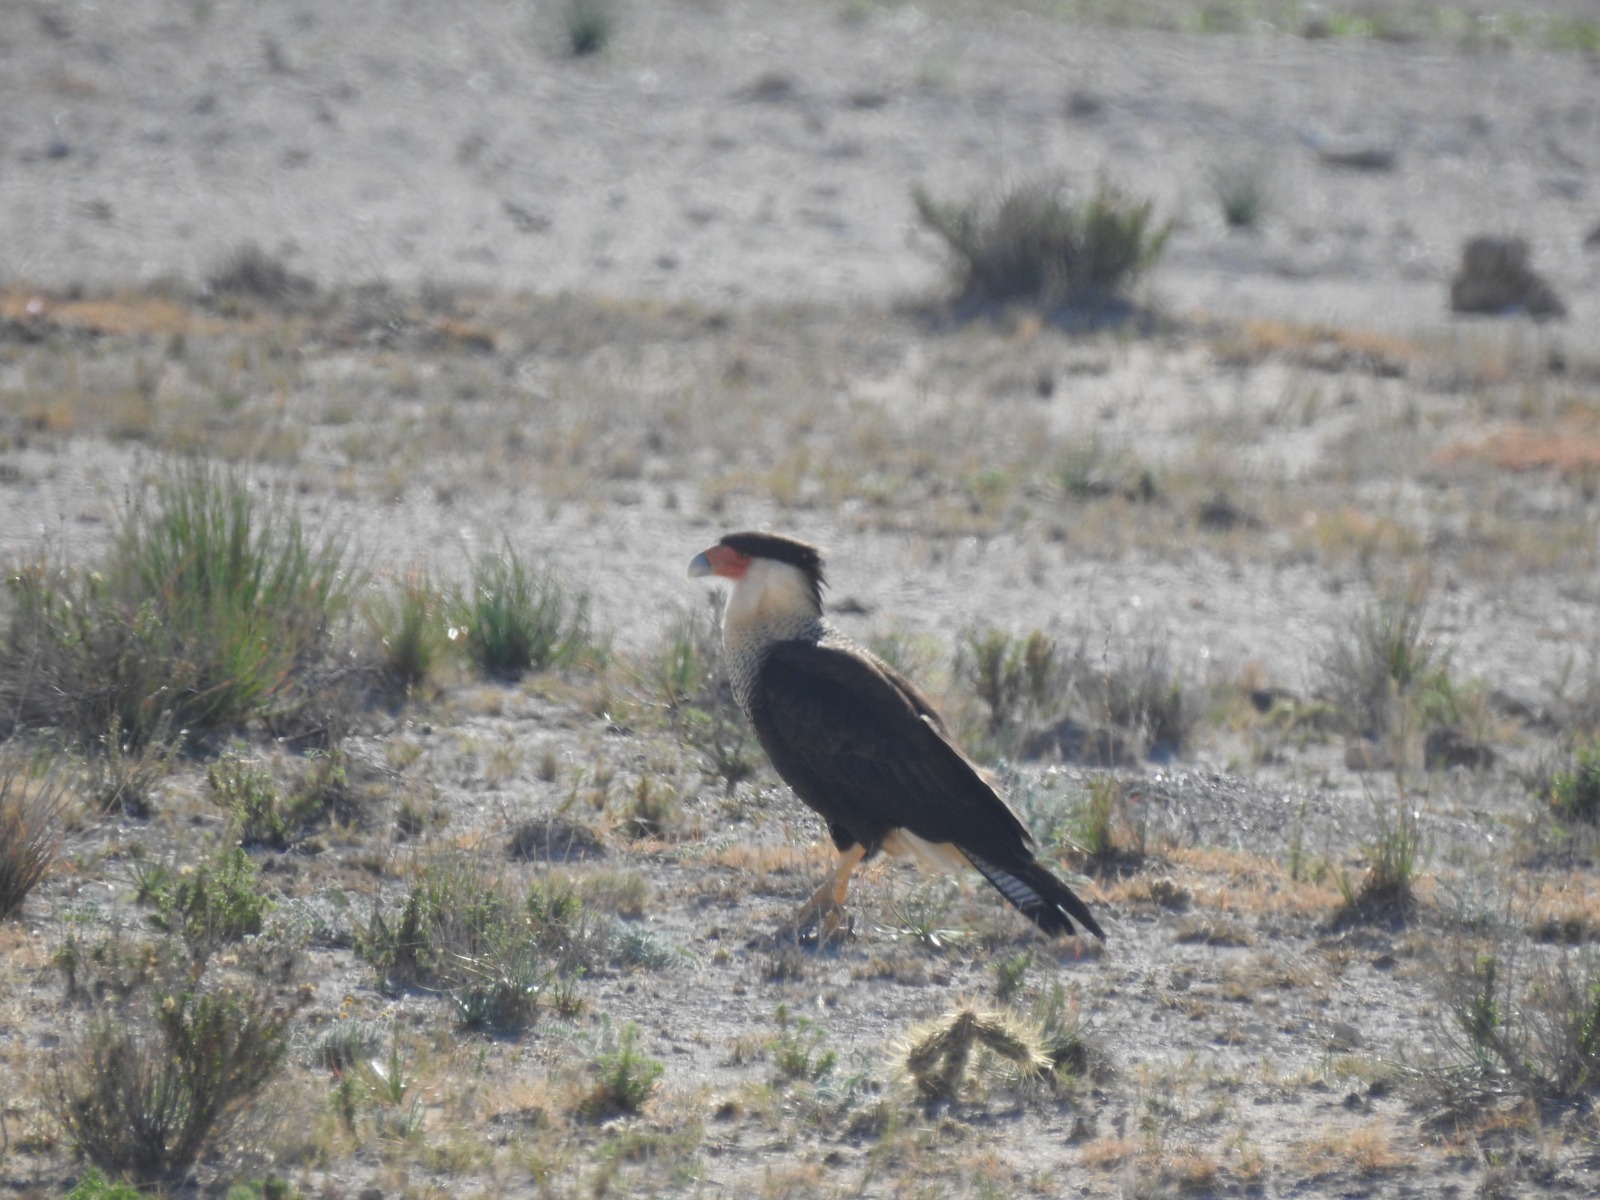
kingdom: Animalia
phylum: Chordata
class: Aves
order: Falconiformes
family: Falconidae
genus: Caracara
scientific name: Caracara plancus
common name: Southern caracara
